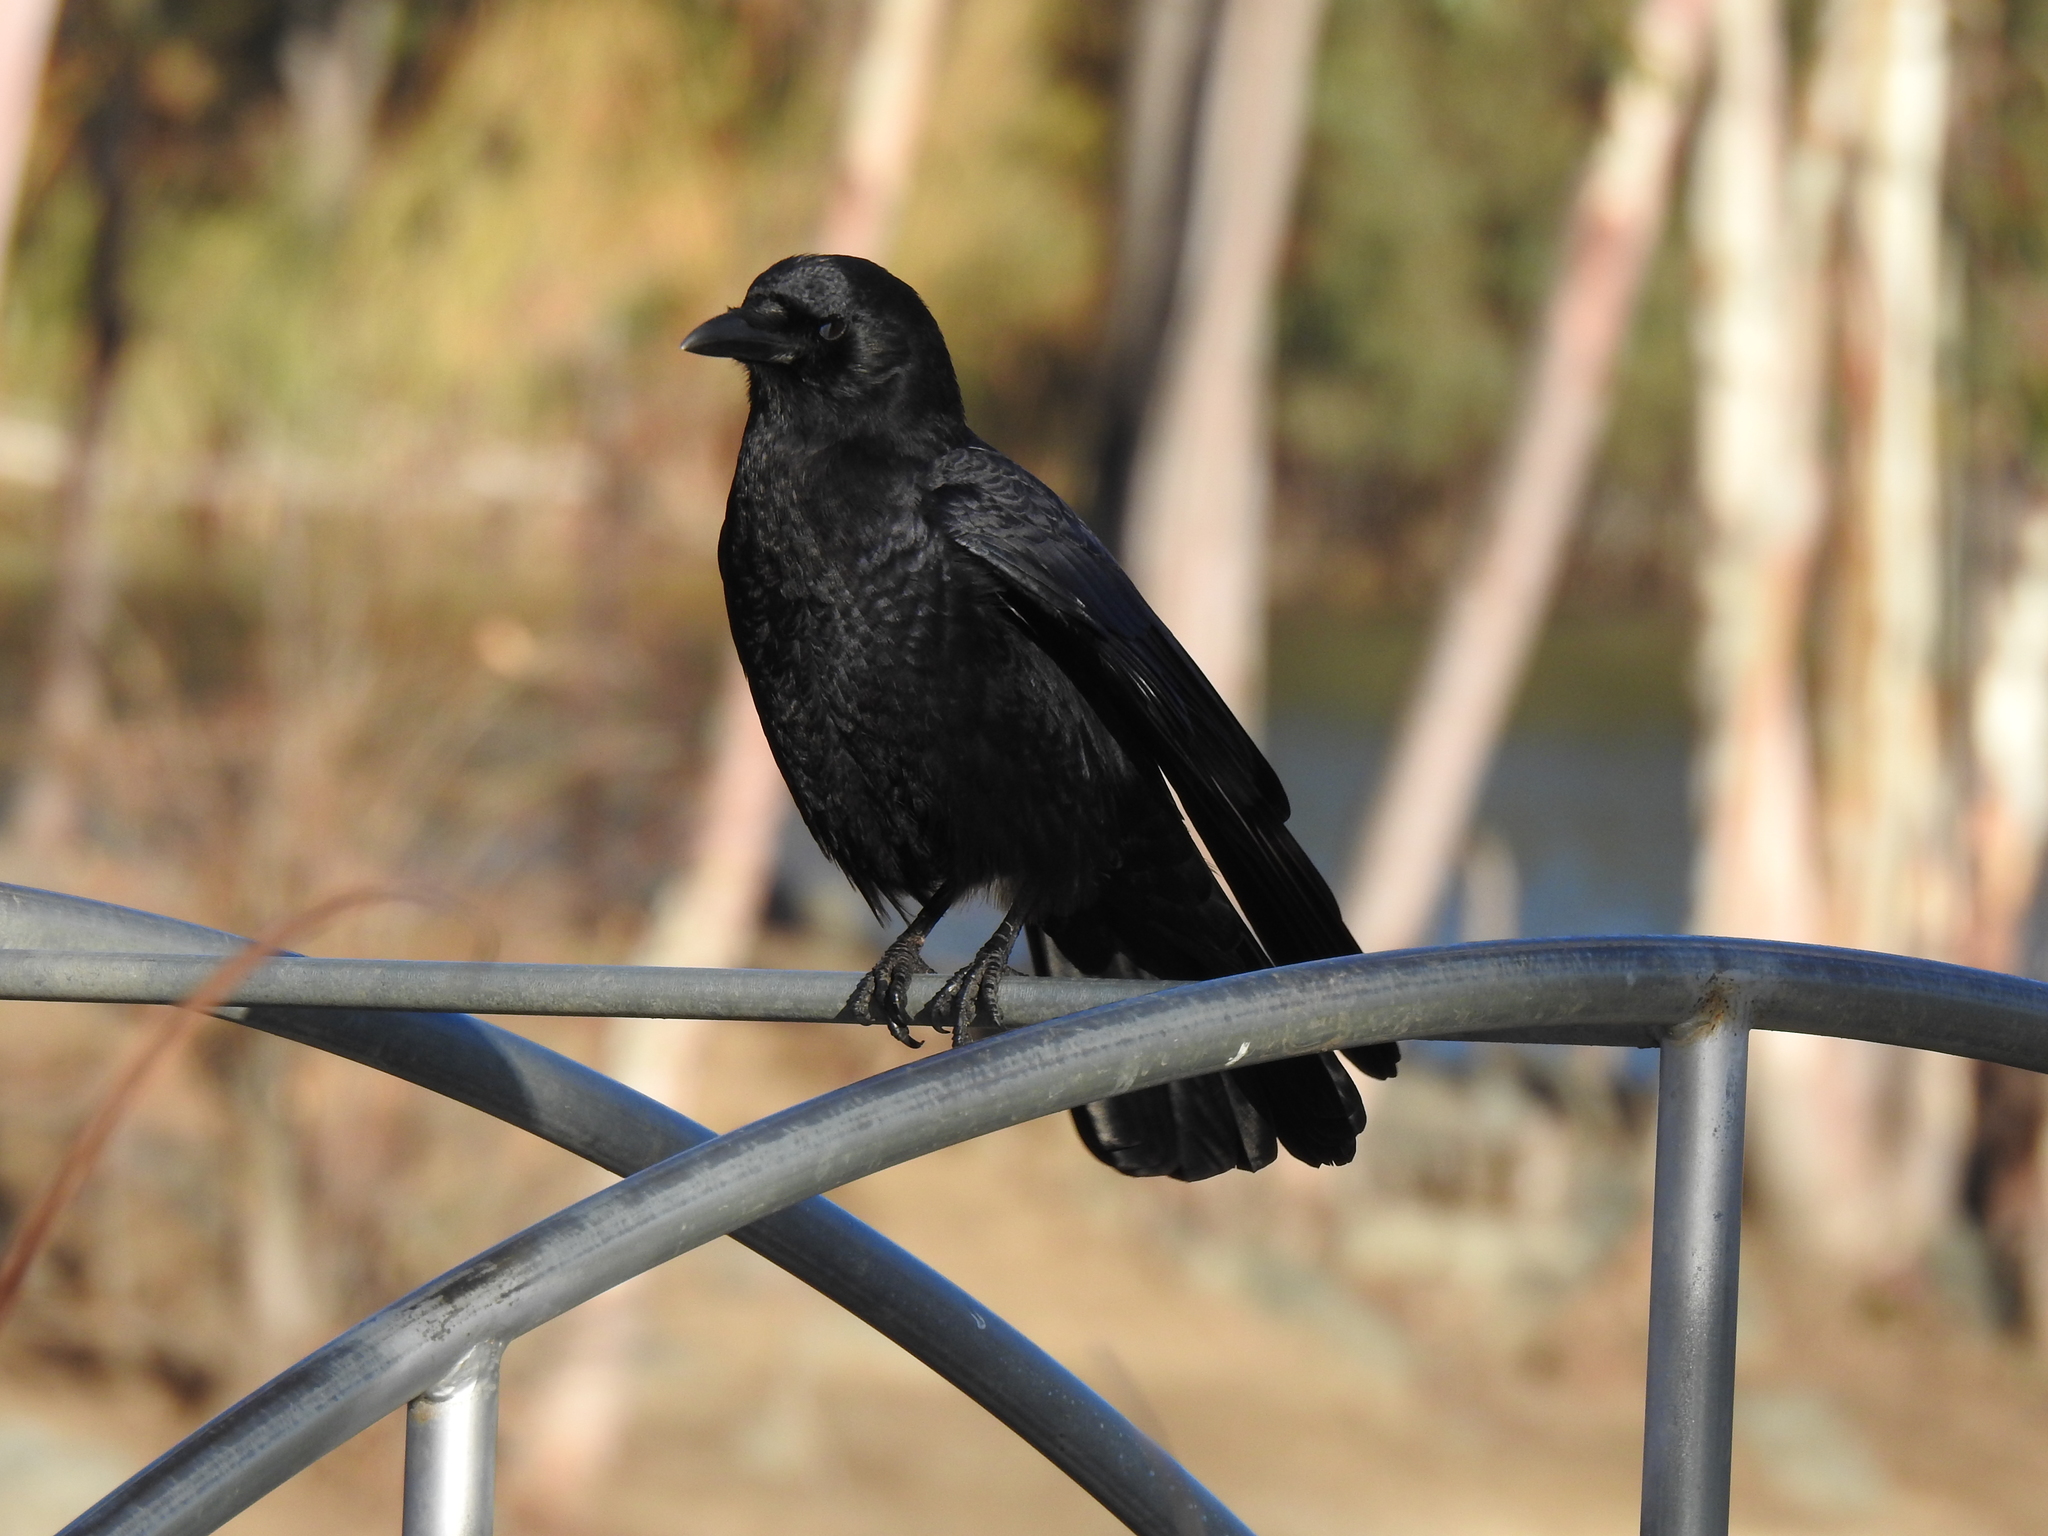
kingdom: Animalia
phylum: Chordata
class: Aves
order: Passeriformes
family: Corvidae
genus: Corvus
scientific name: Corvus brachyrhynchos
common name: American crow
